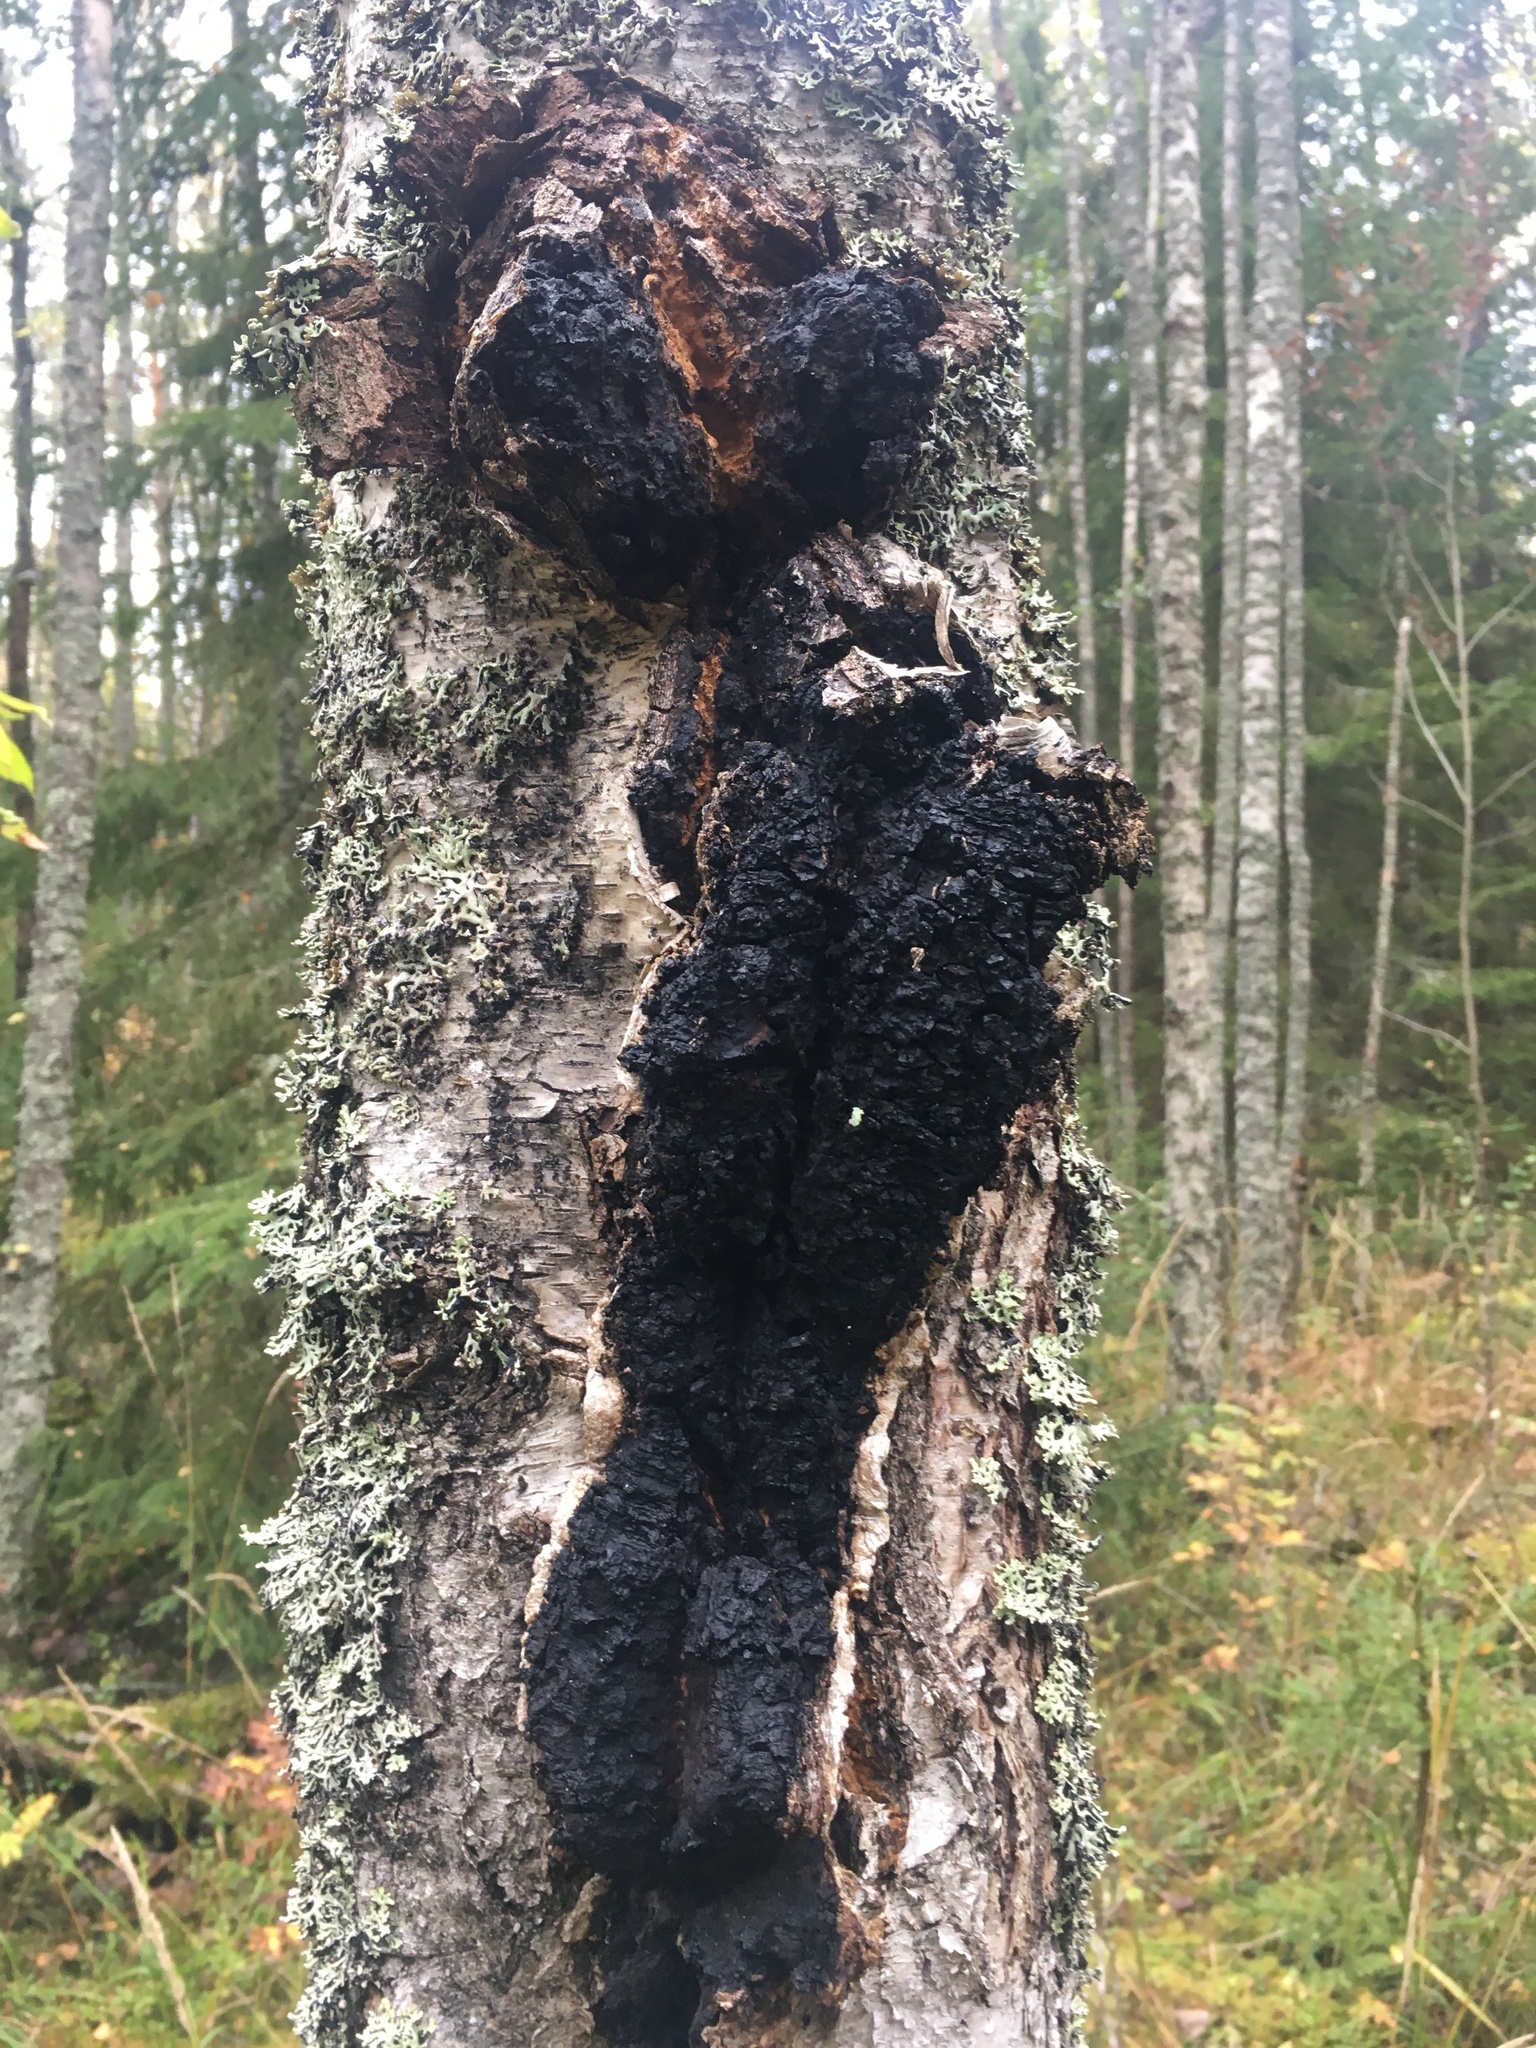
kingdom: Fungi
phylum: Basidiomycota
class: Agaricomycetes
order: Hymenochaetales
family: Hymenochaetaceae
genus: Inonotus
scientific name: Inonotus obliquus
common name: Chaga
